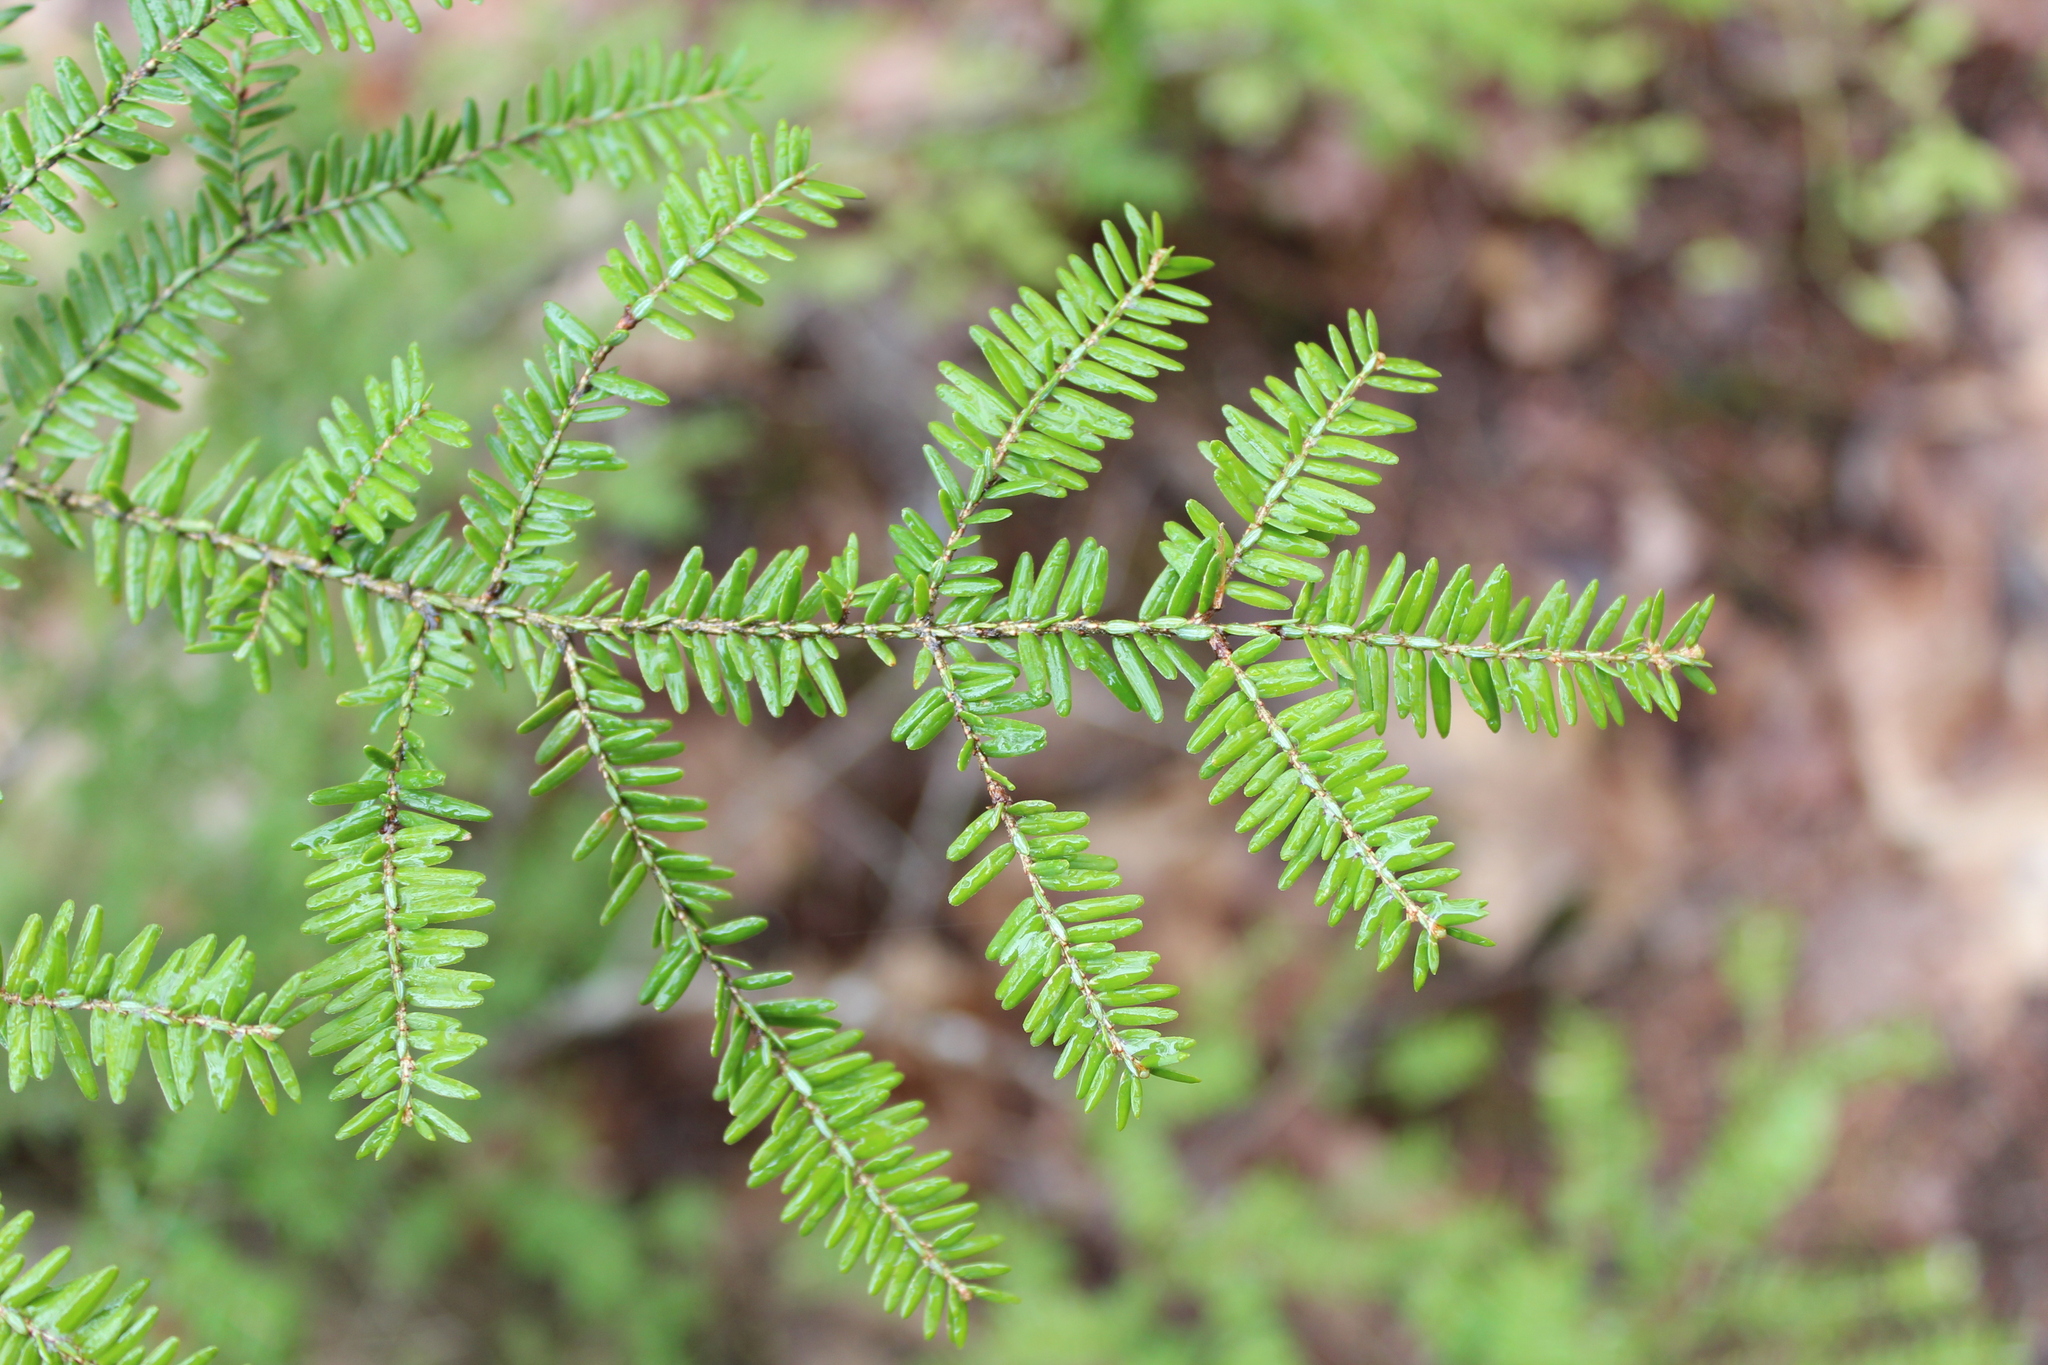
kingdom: Plantae
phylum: Tracheophyta
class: Pinopsida
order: Pinales
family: Pinaceae
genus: Tsuga
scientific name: Tsuga canadensis
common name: Eastern hemlock
